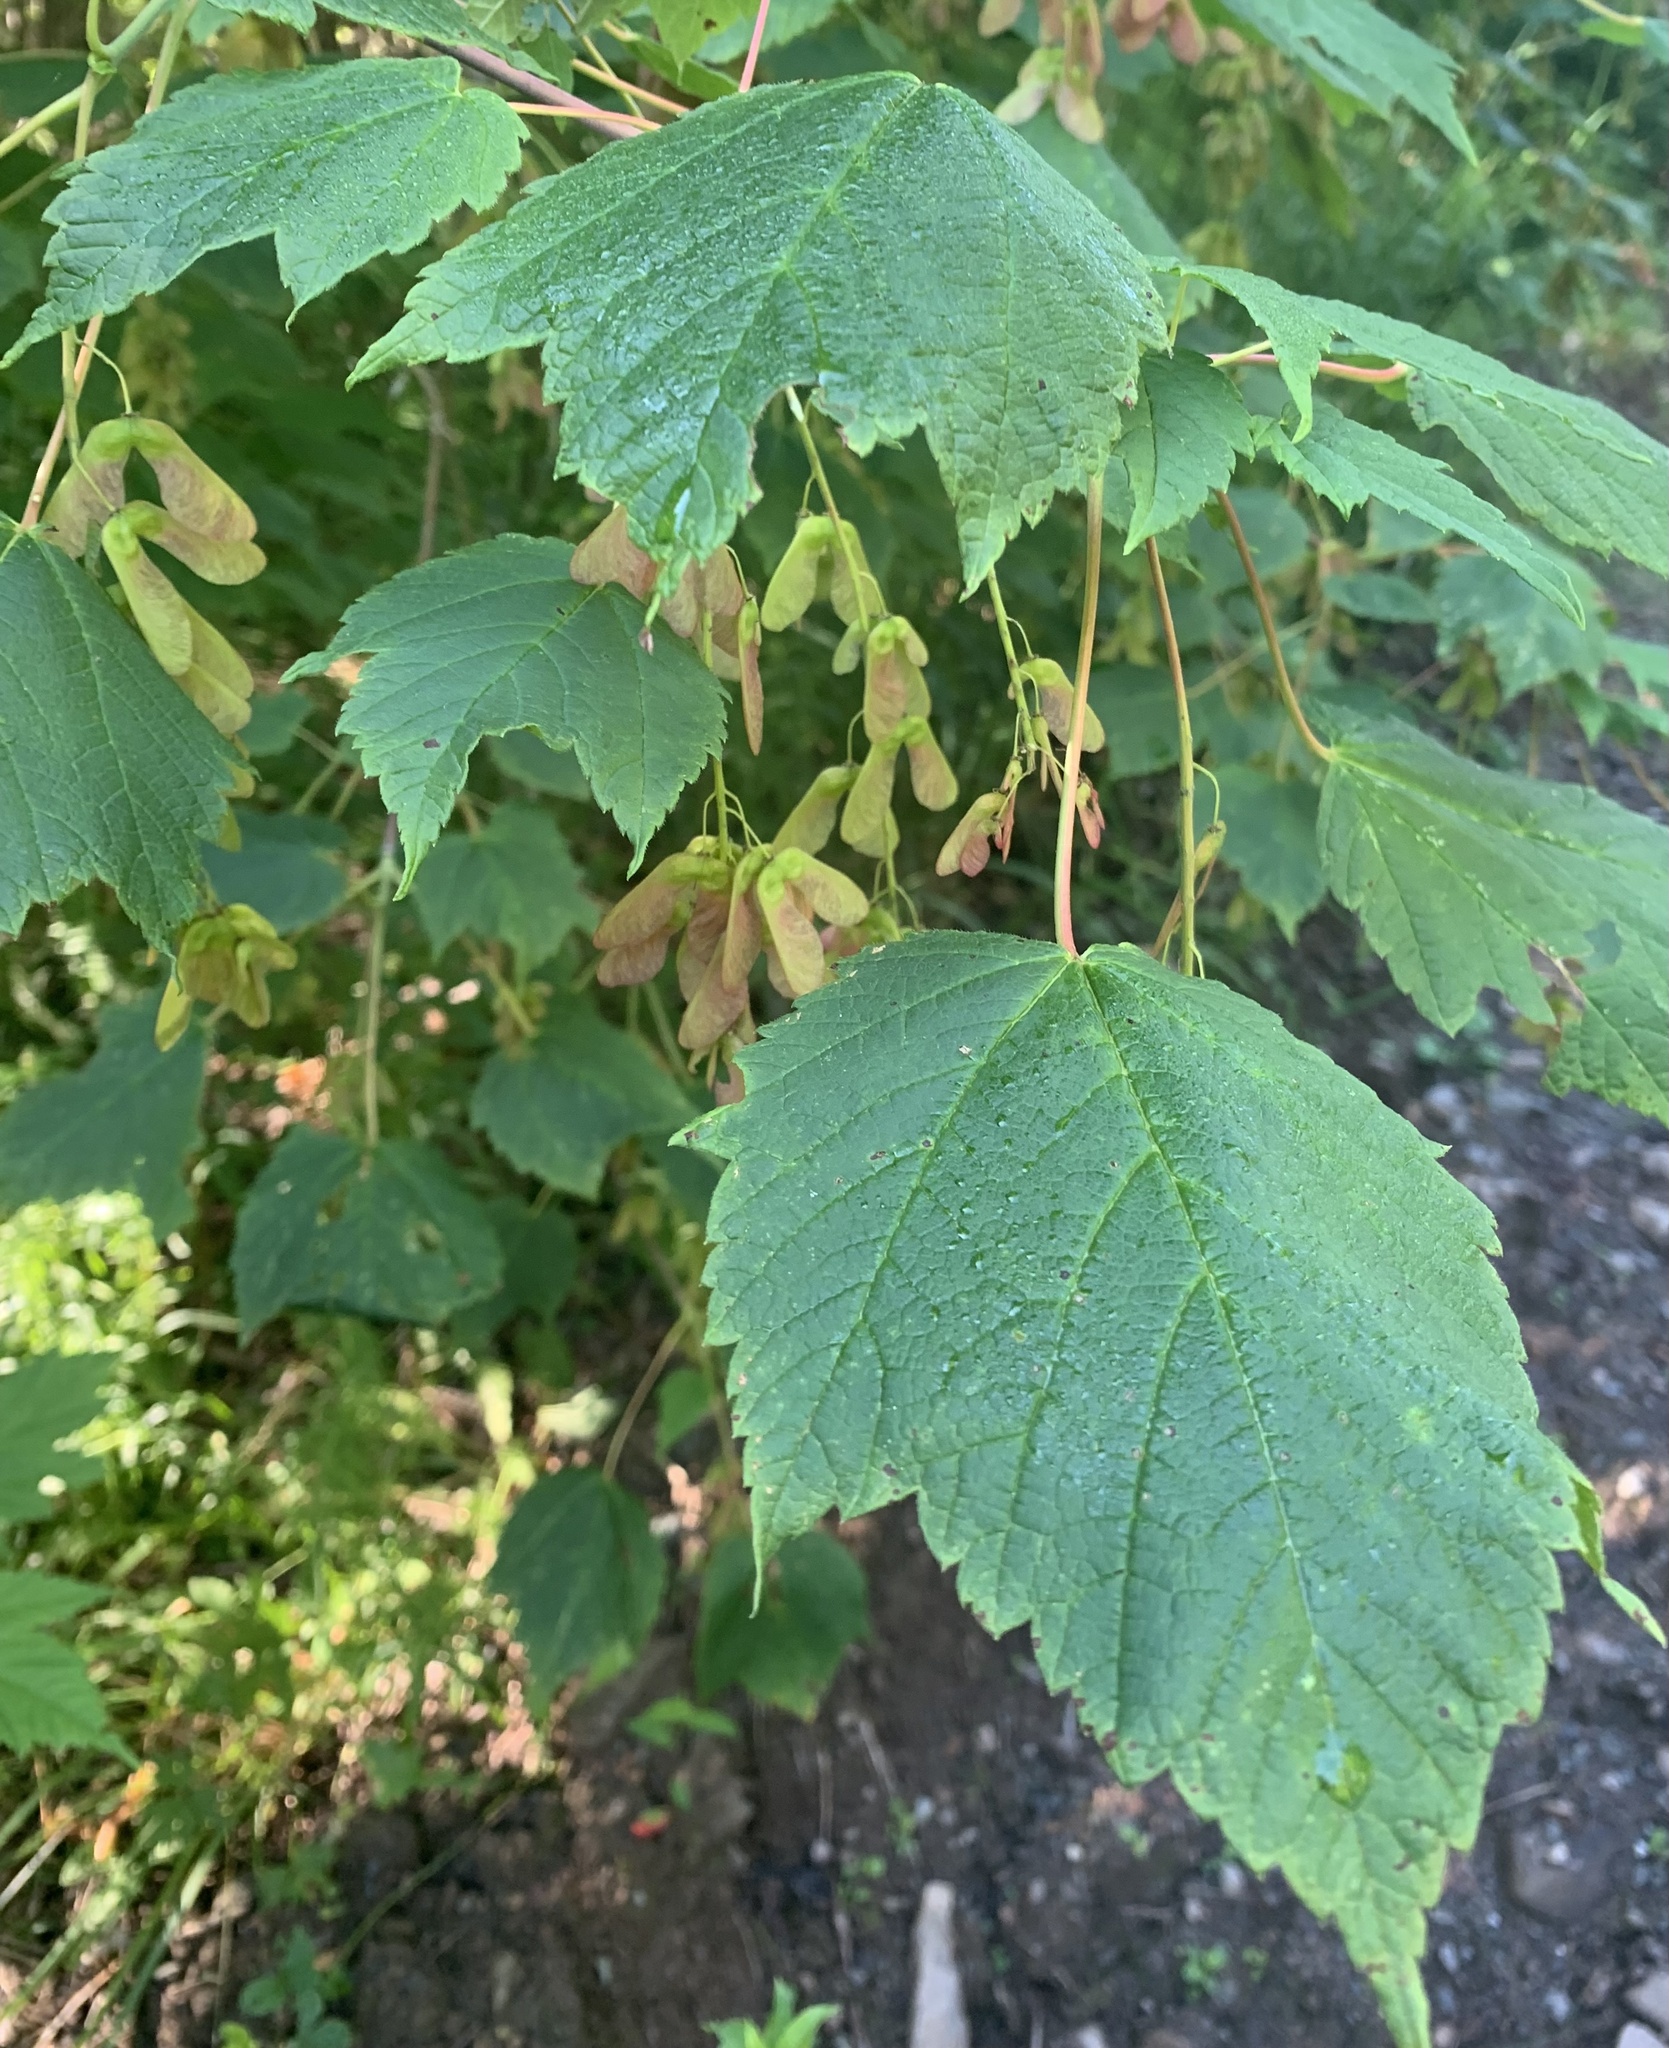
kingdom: Plantae
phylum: Tracheophyta
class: Magnoliopsida
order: Sapindales
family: Sapindaceae
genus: Acer
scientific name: Acer spicatum
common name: Mountain maple
